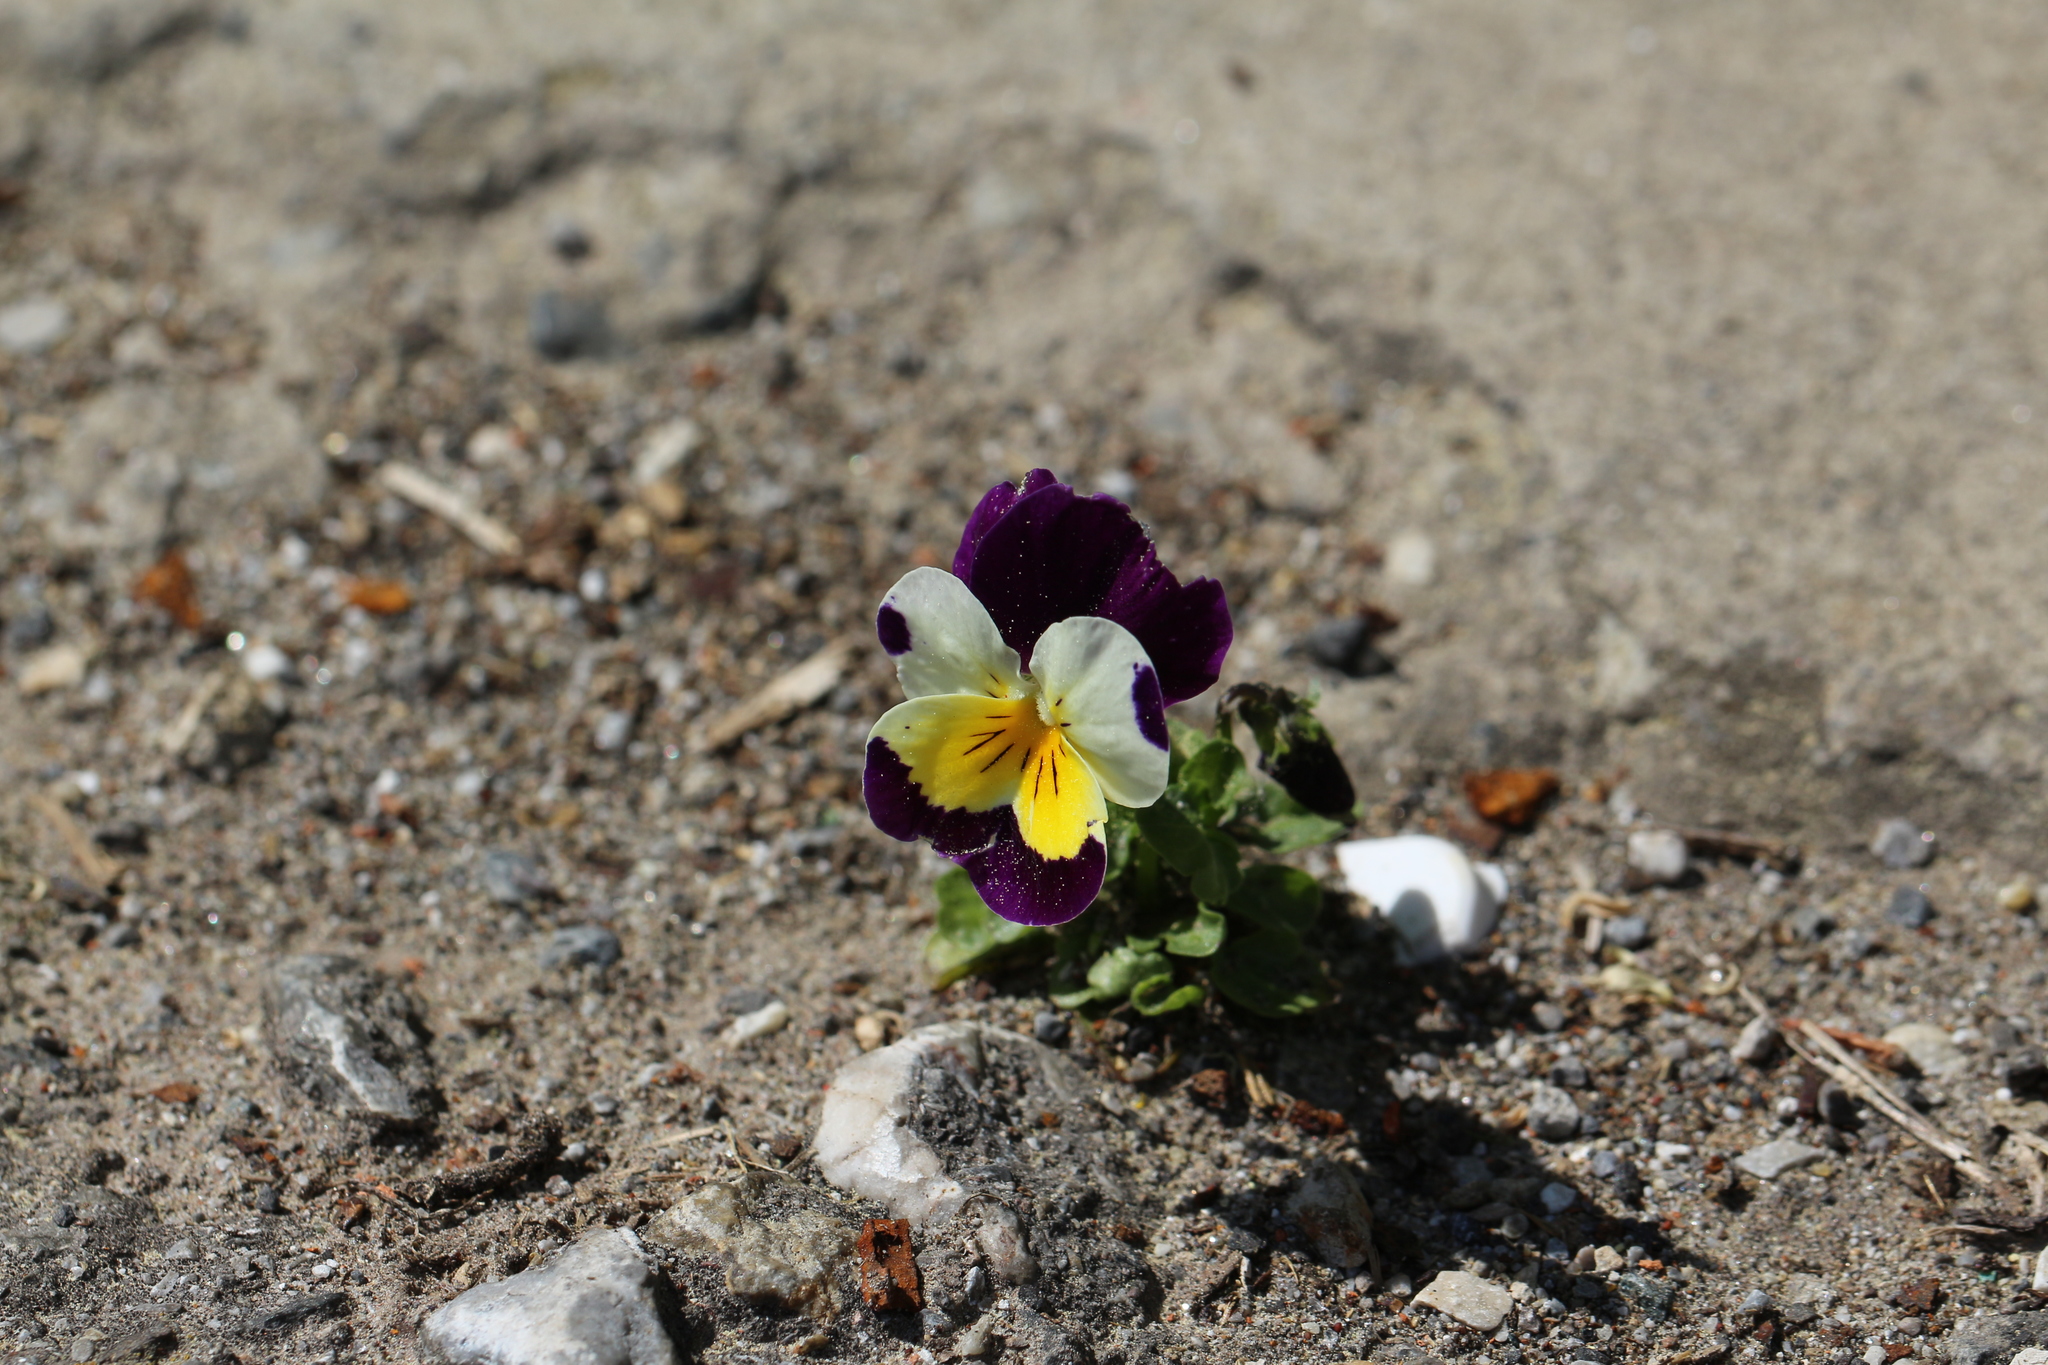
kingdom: Plantae
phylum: Tracheophyta
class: Magnoliopsida
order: Malpighiales
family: Violaceae
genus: Viola
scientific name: Viola
